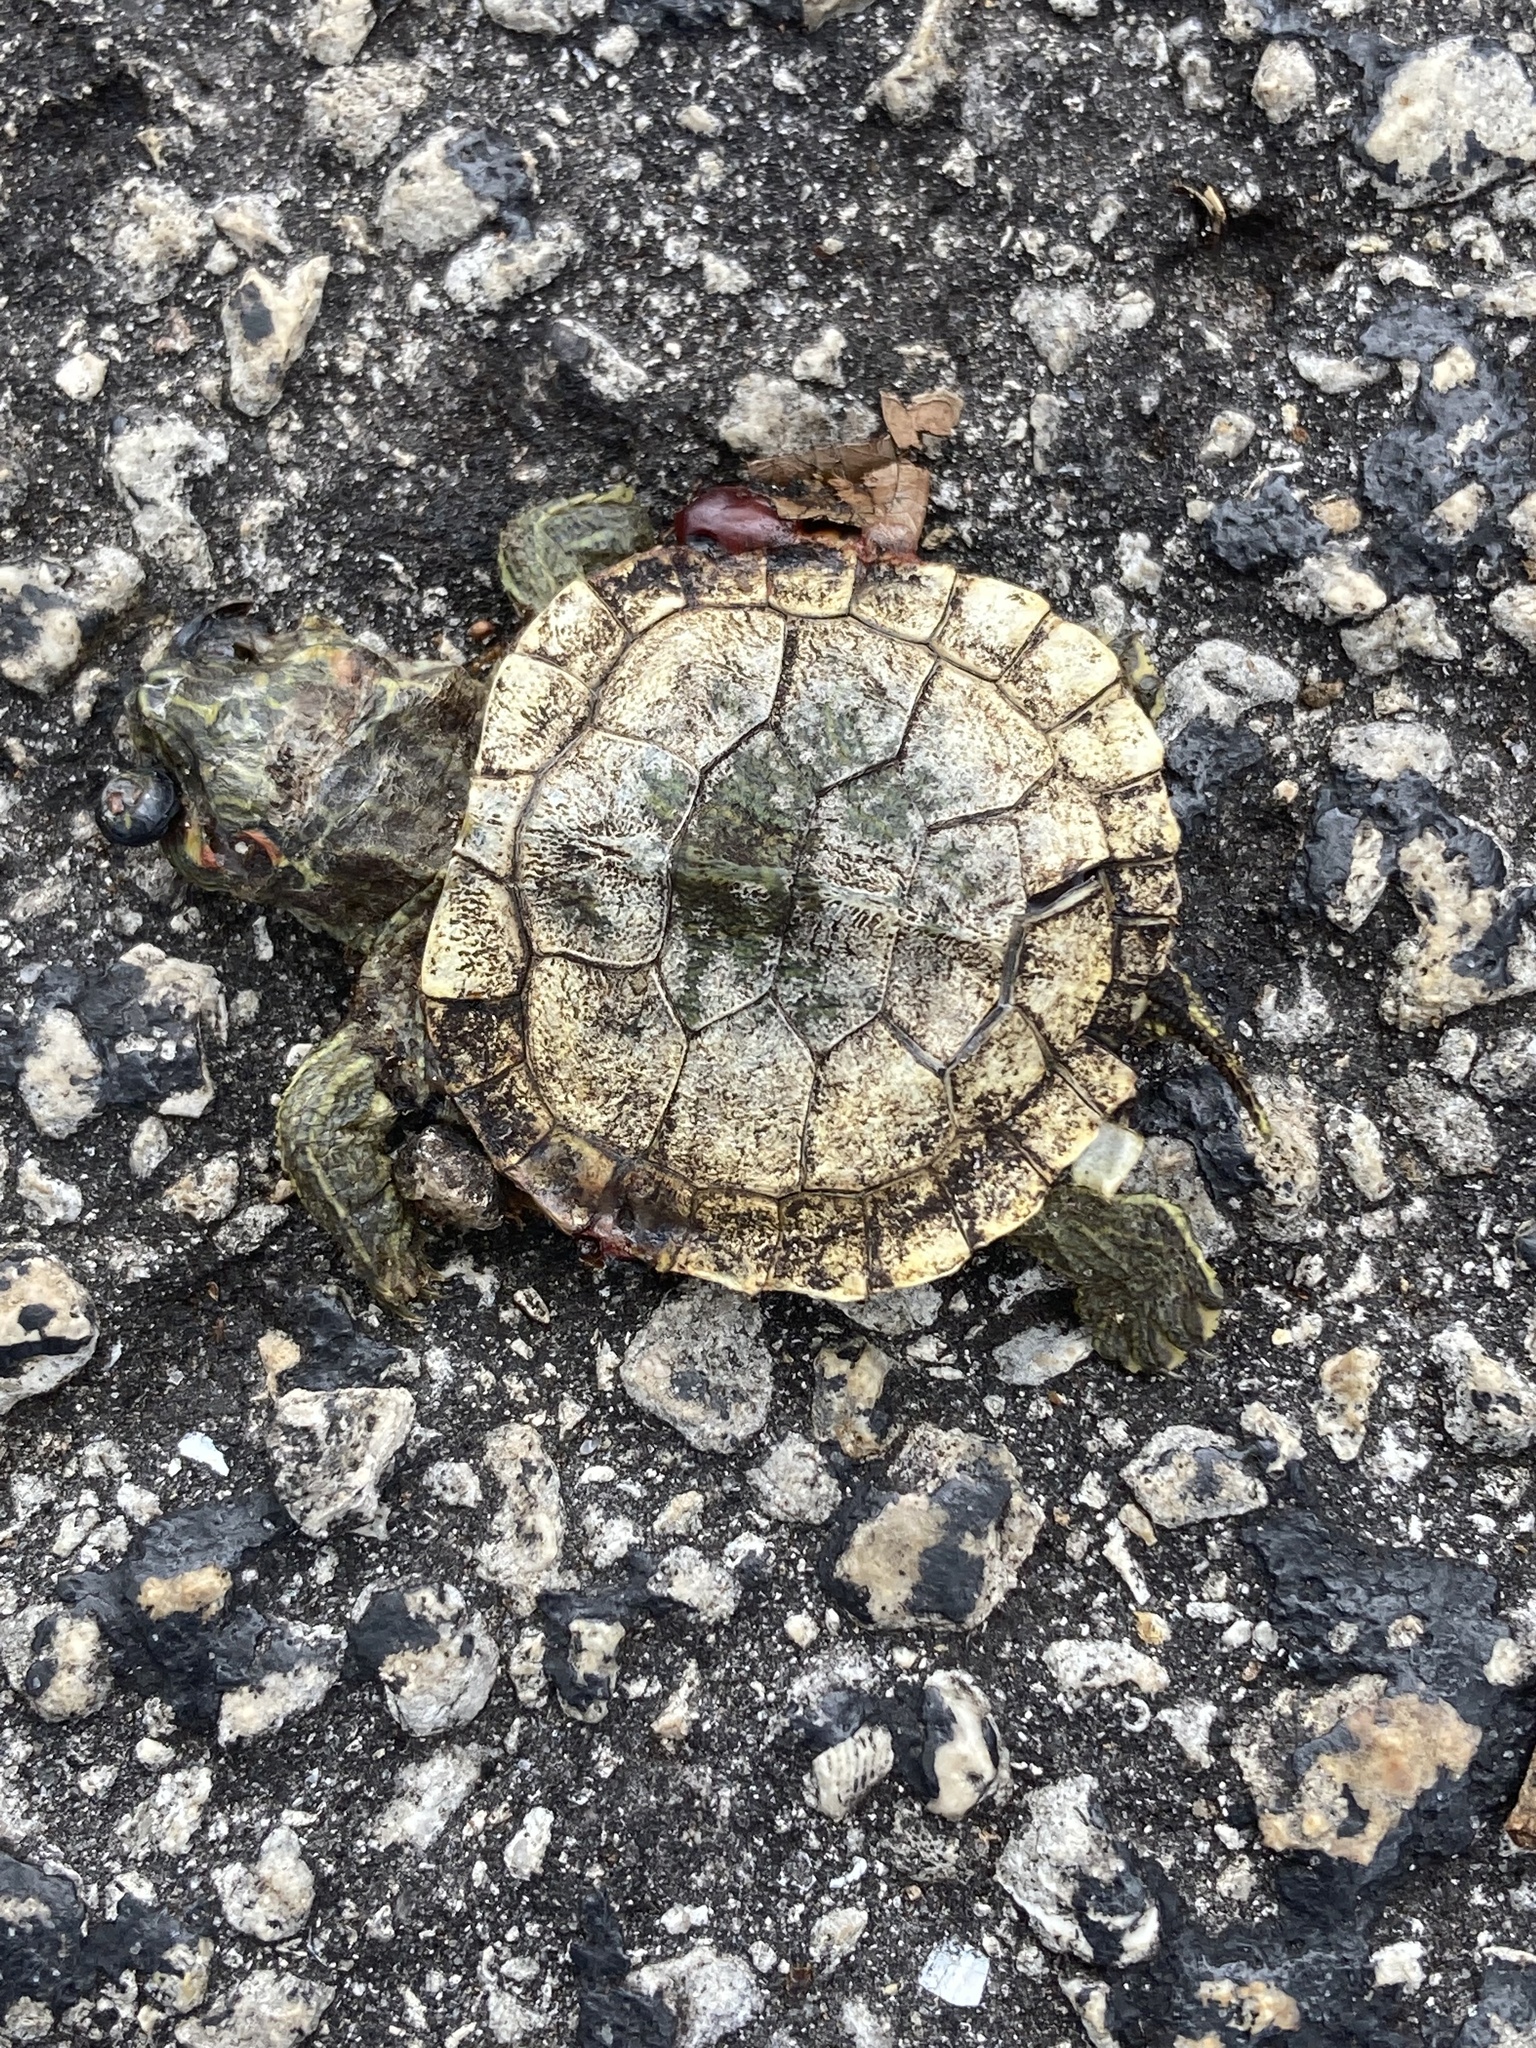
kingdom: Animalia
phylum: Chordata
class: Testudines
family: Emydidae
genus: Trachemys
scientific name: Trachemys scripta
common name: Slider
